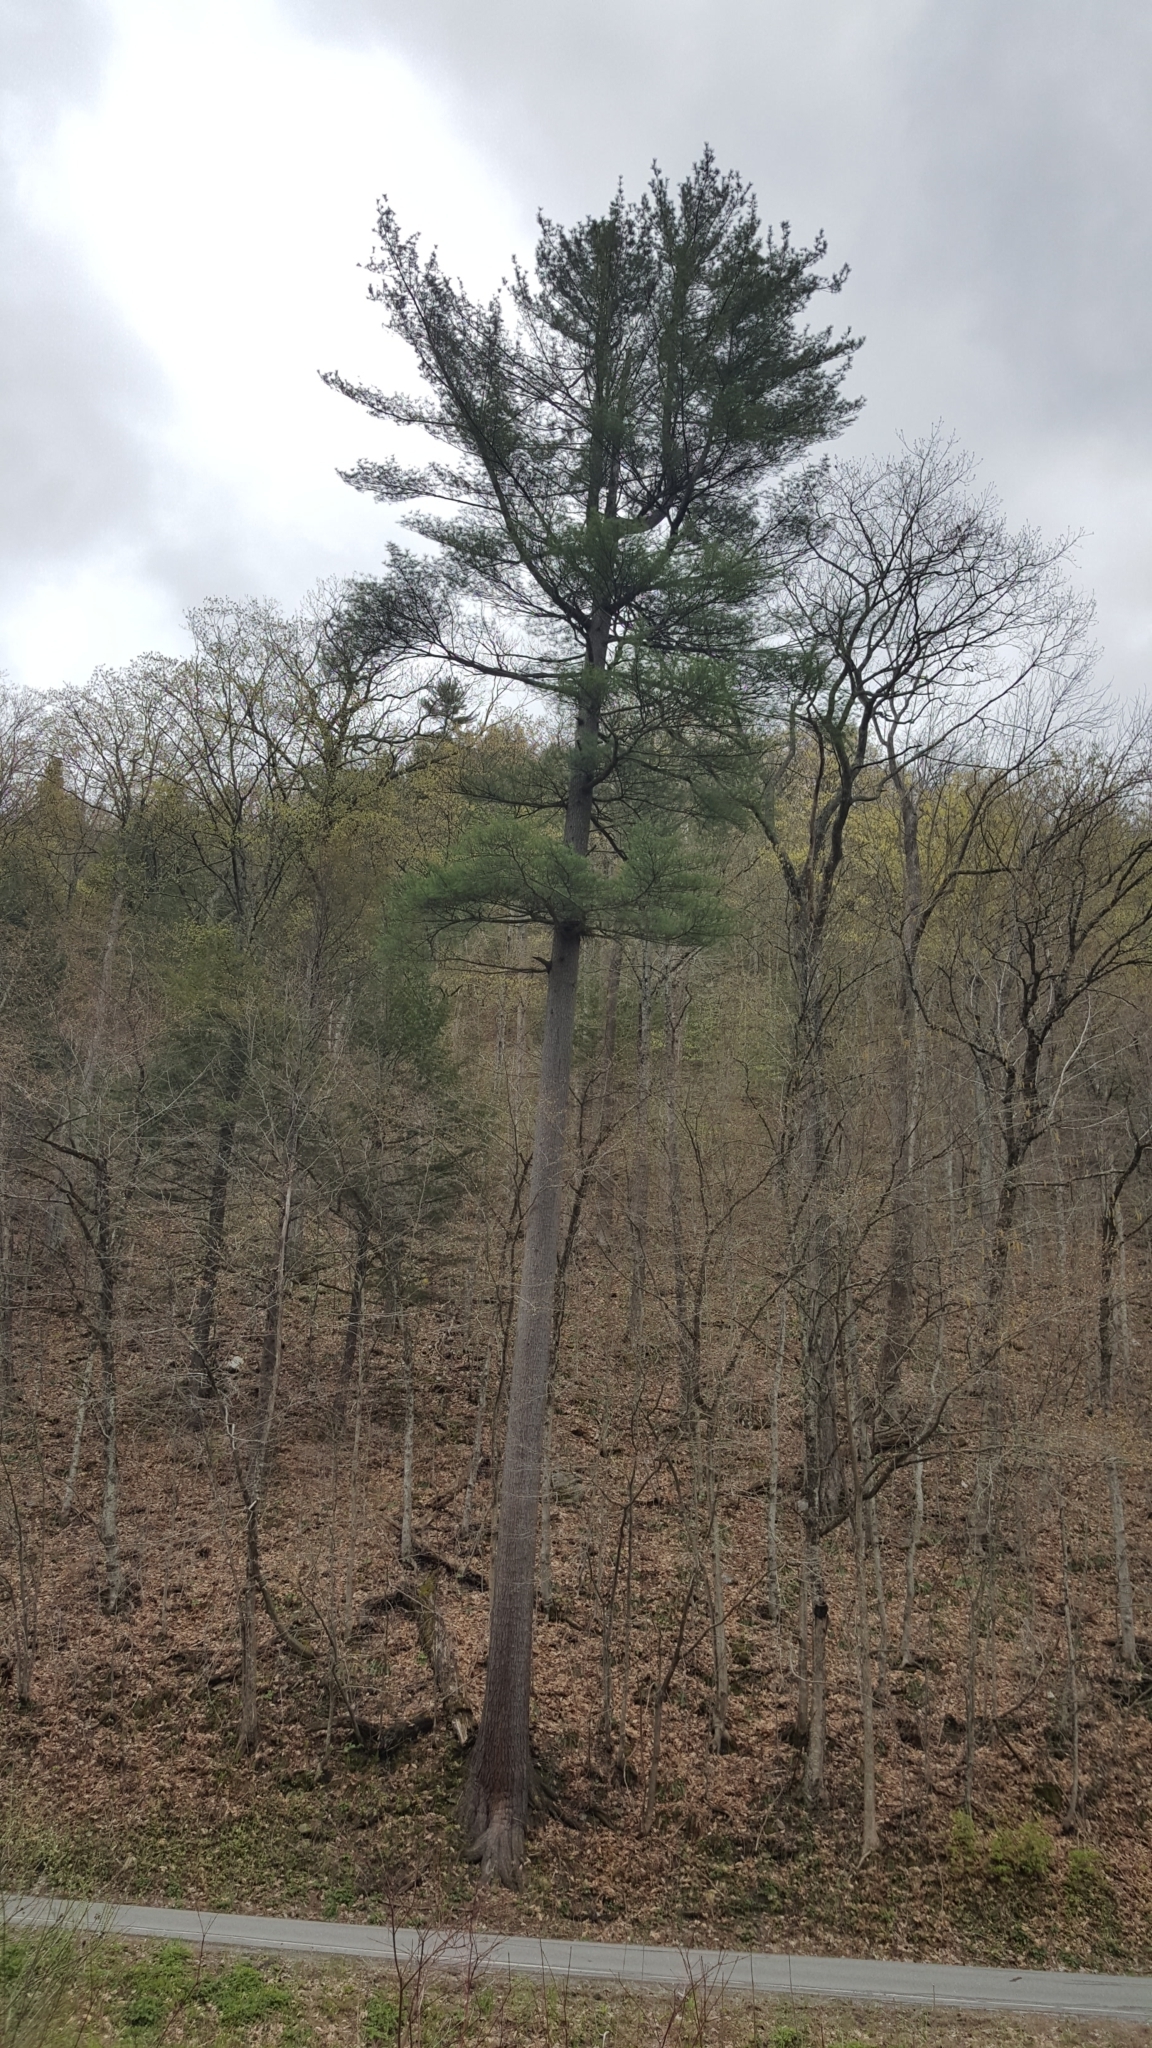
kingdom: Plantae
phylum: Tracheophyta
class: Pinopsida
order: Pinales
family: Pinaceae
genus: Pinus
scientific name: Pinus strobus
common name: Weymouth pine
